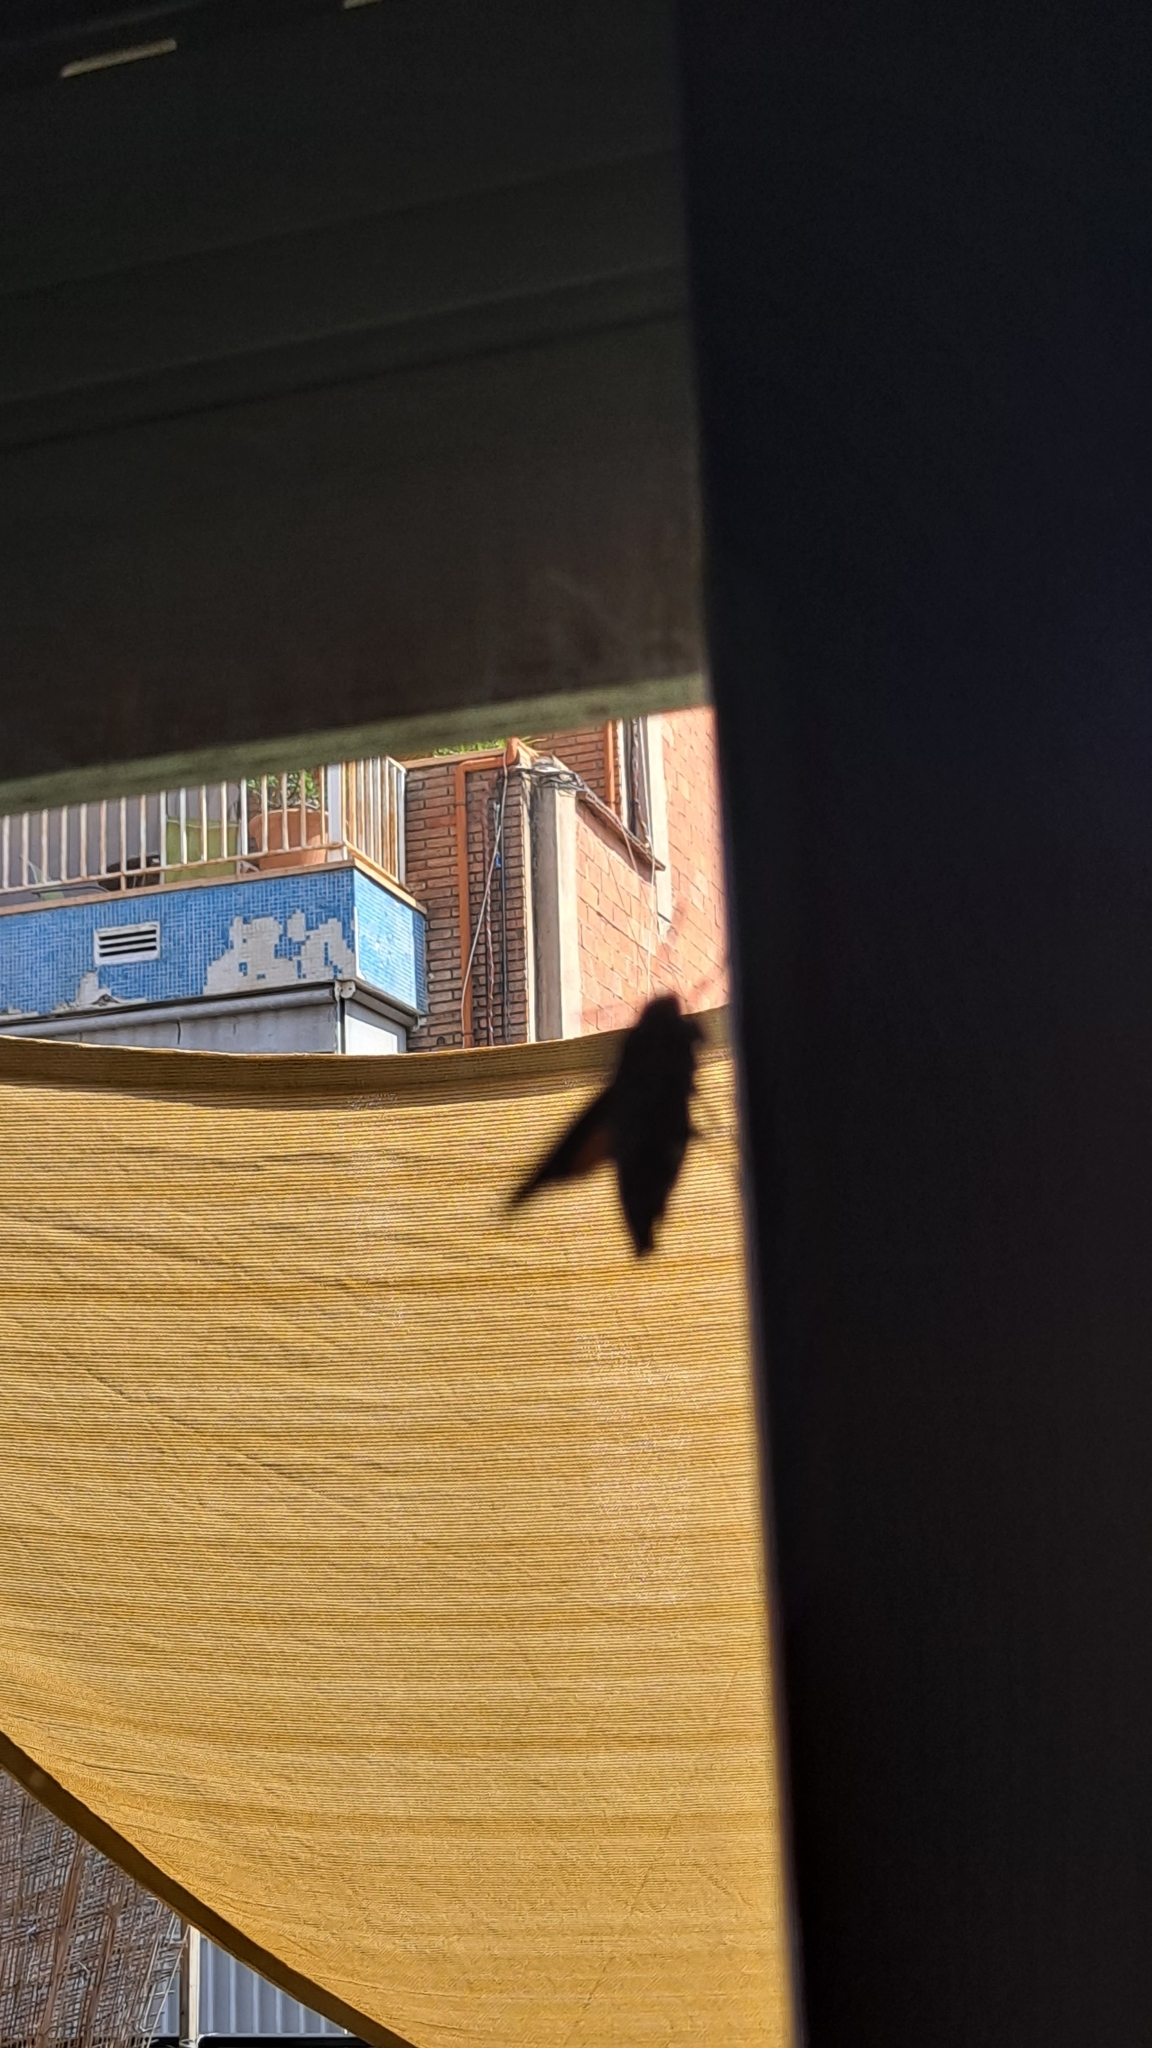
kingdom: Animalia
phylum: Arthropoda
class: Insecta
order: Lepidoptera
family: Sphingidae
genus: Macroglossum
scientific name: Macroglossum stellatarum
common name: Humming-bird hawk-moth
